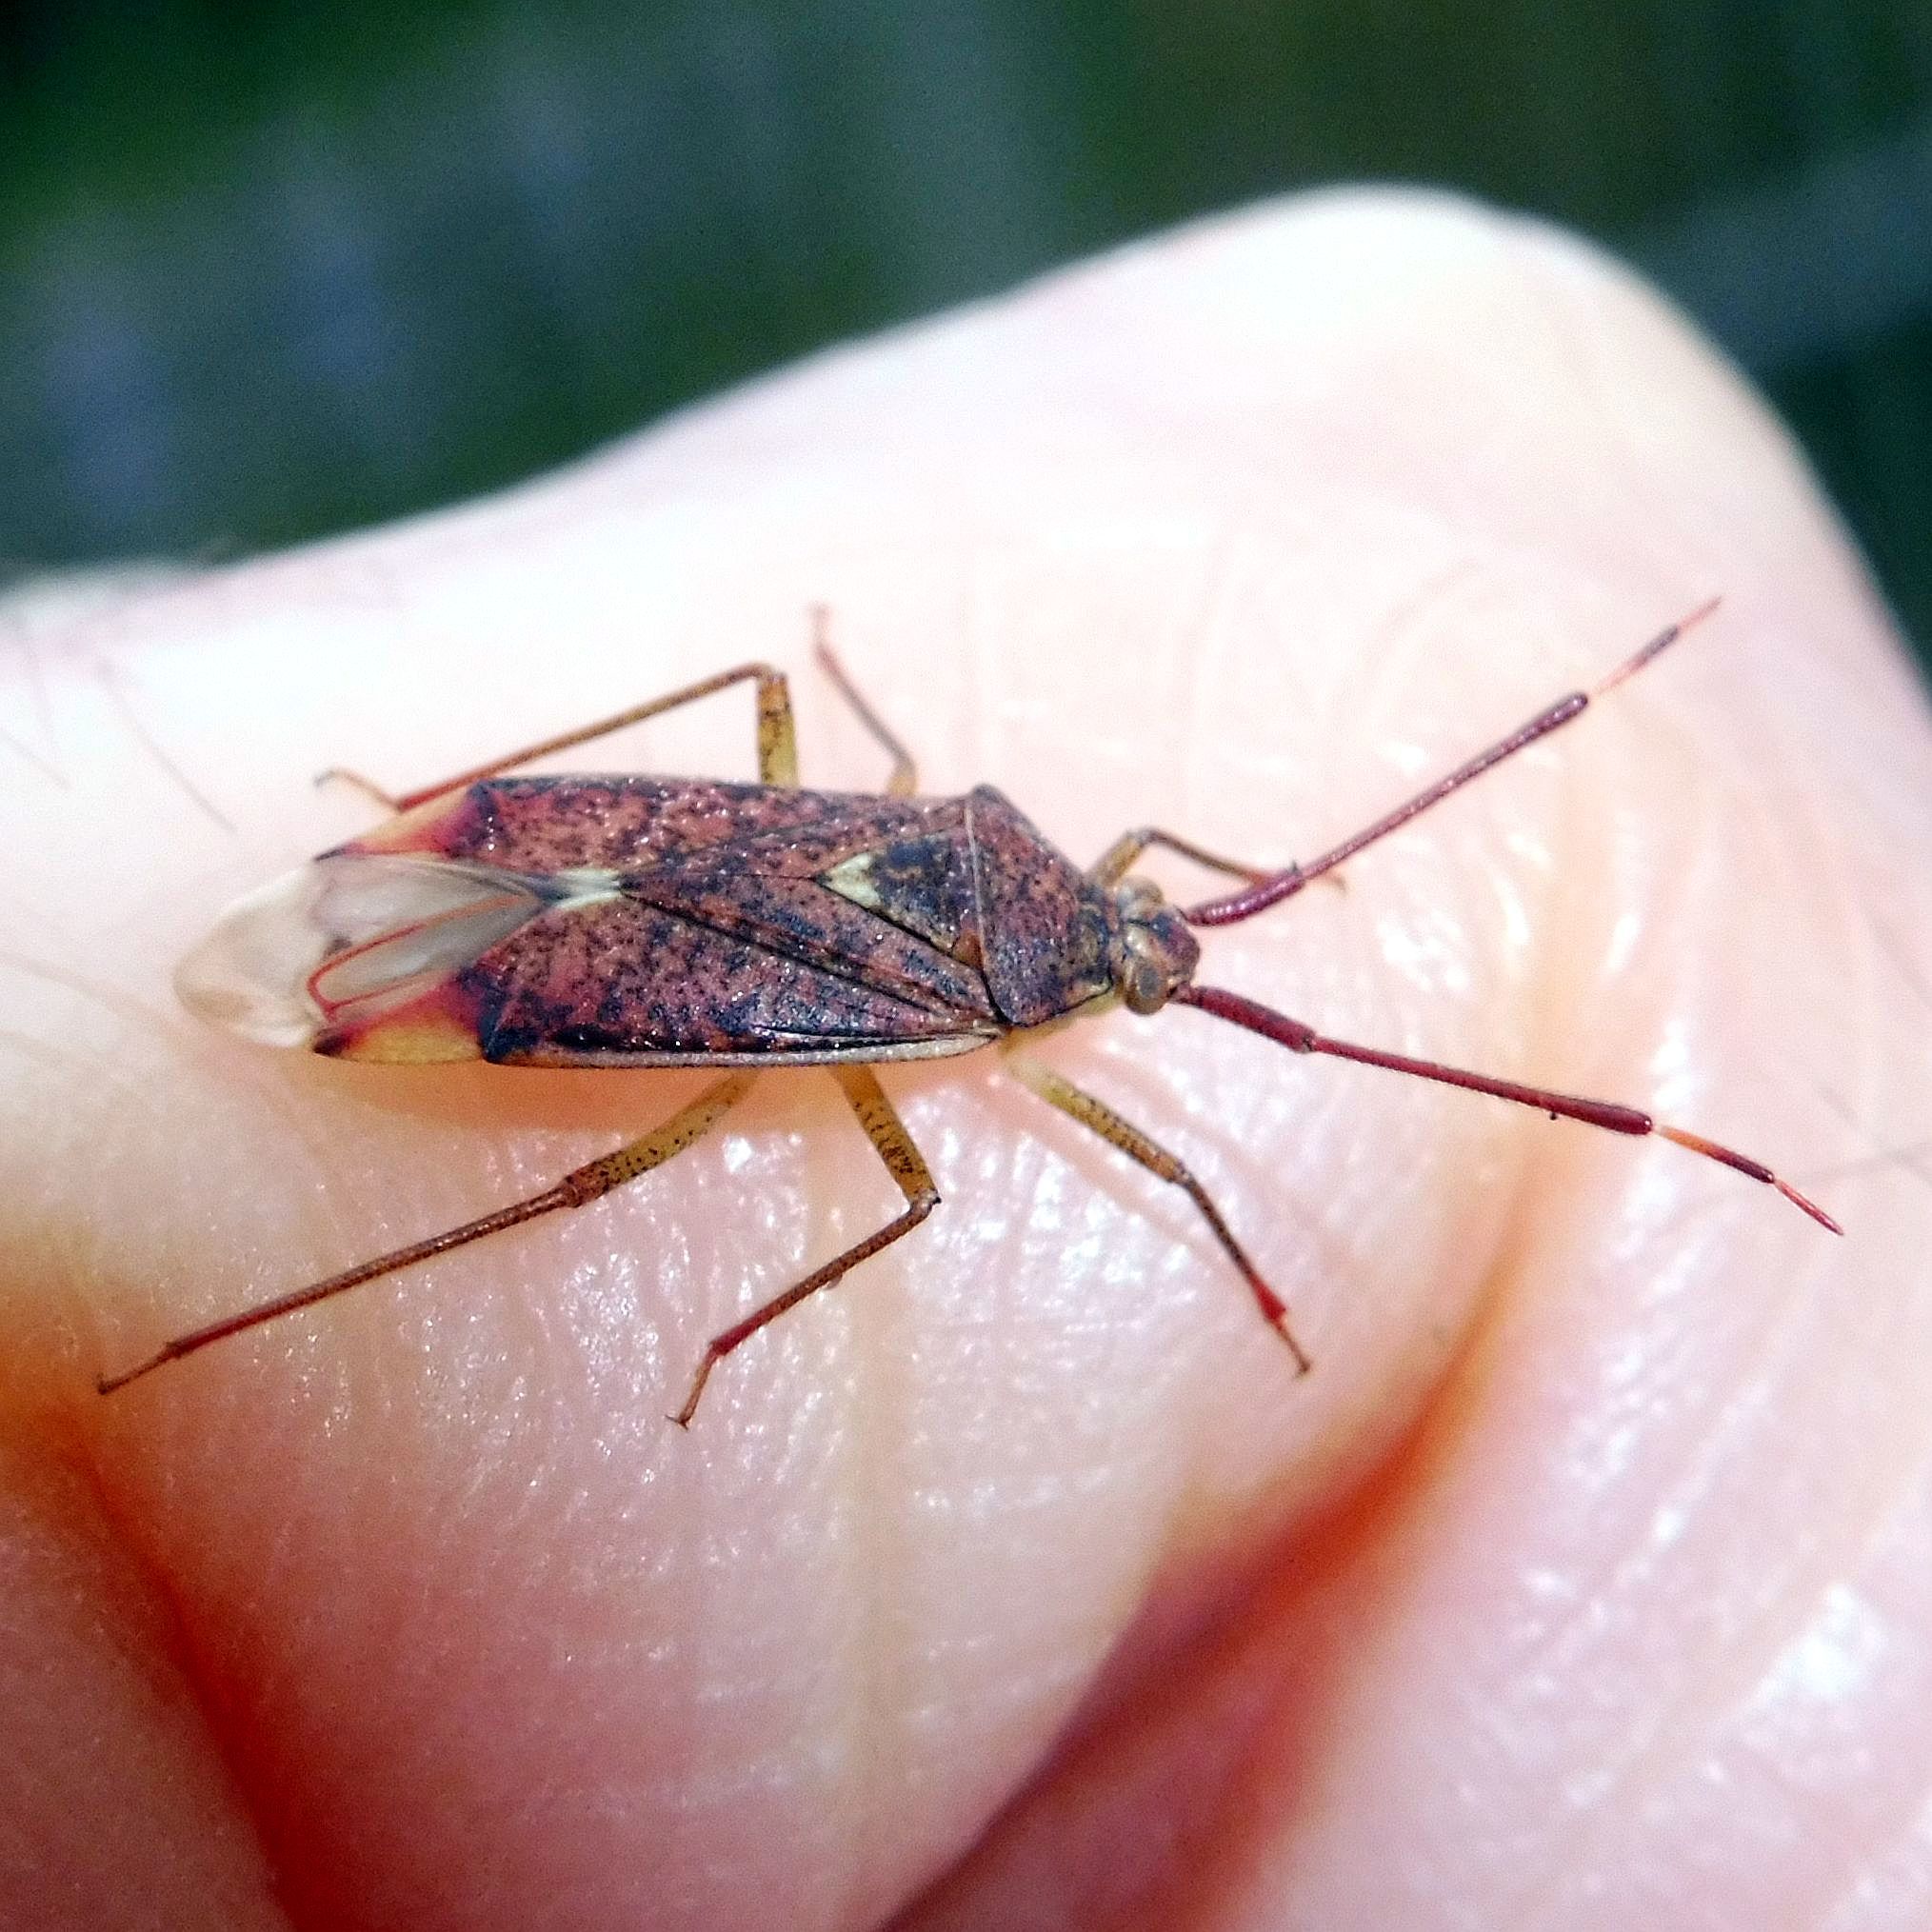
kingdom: Animalia
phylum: Arthropoda
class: Insecta
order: Hemiptera
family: Miridae
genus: Pantilius
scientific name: Pantilius tunicatus
